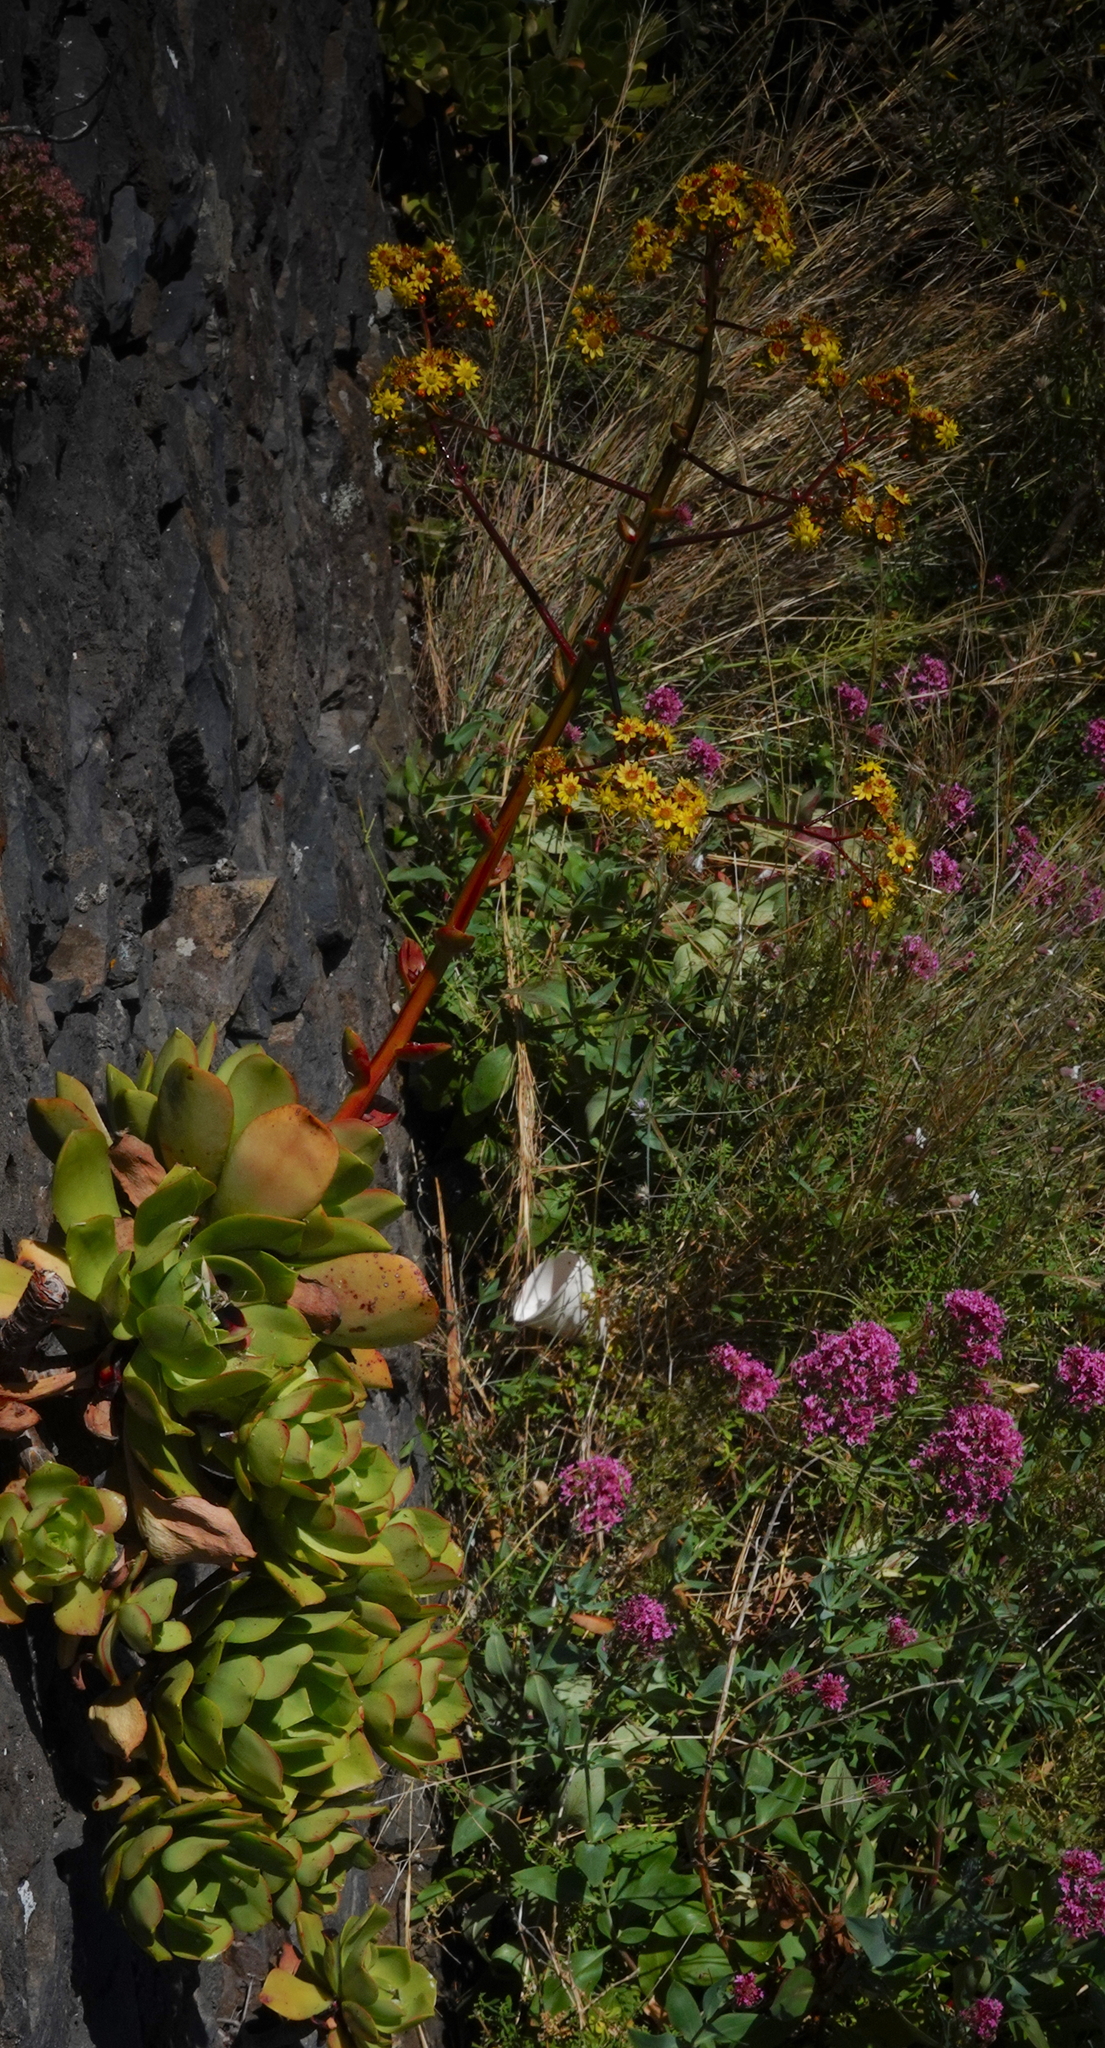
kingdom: Plantae
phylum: Tracheophyta
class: Magnoliopsida
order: Saxifragales
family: Crassulaceae
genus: Aeonium
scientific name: Aeonium glutinosum
